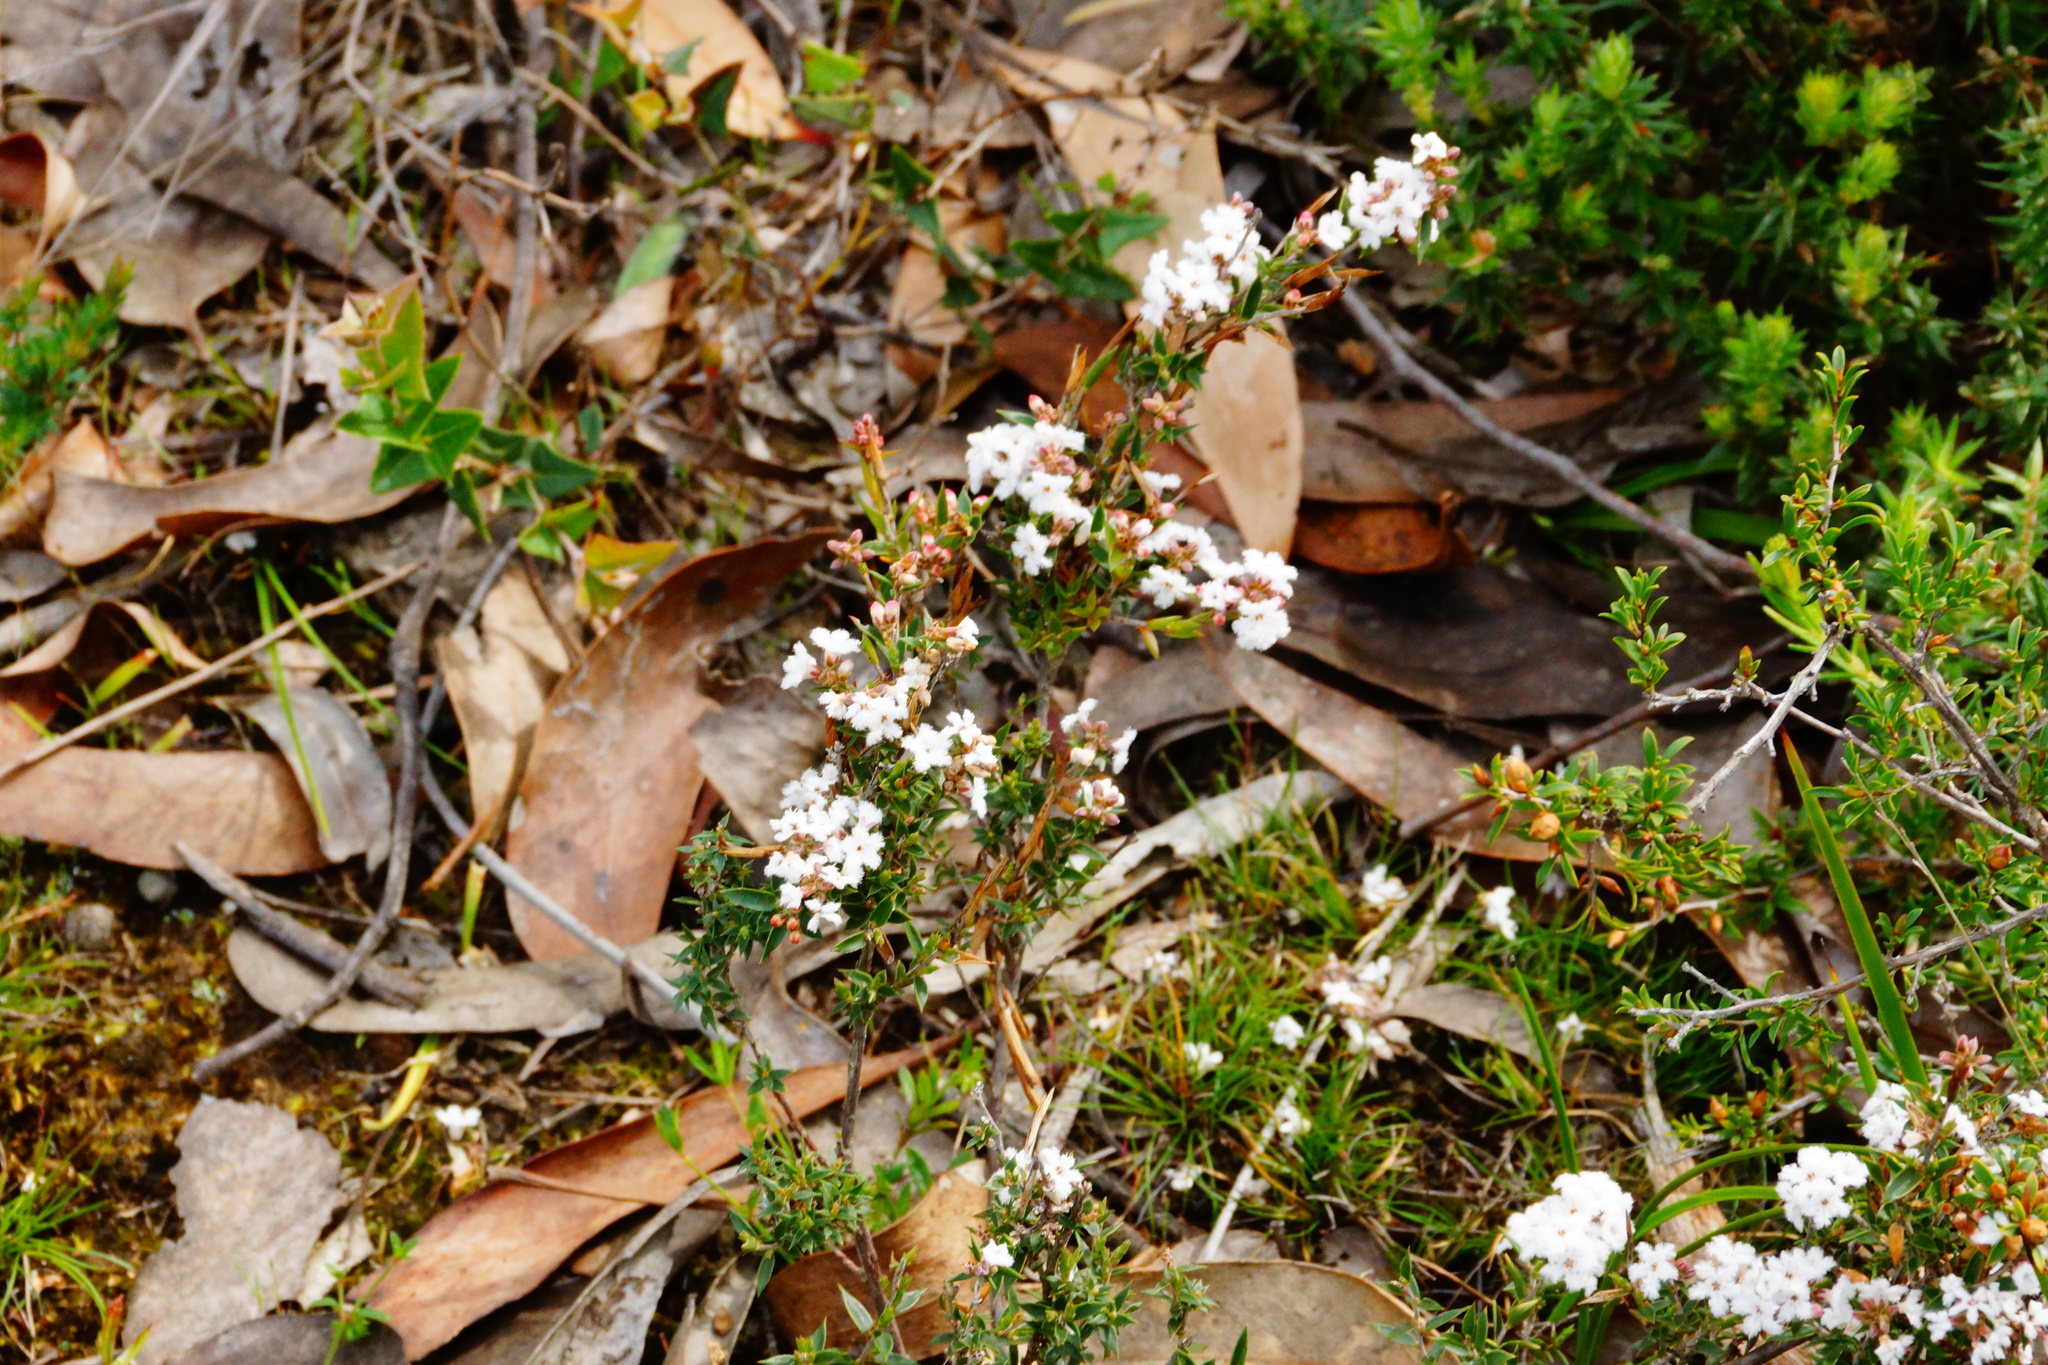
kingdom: Plantae
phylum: Tracheophyta
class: Magnoliopsida
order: Ericales
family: Ericaceae
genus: Leucopogon
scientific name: Leucopogon virgatus
